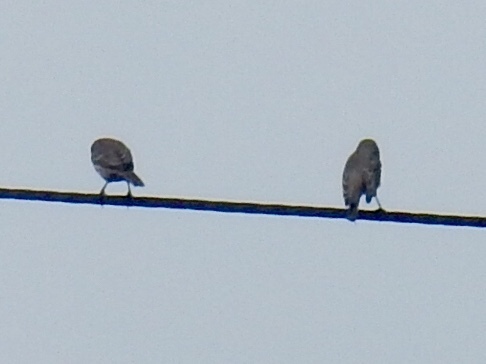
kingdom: Animalia
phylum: Chordata
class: Aves
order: Passeriformes
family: Fringillidae
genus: Haemorhous
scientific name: Haemorhous mexicanus
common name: House finch
